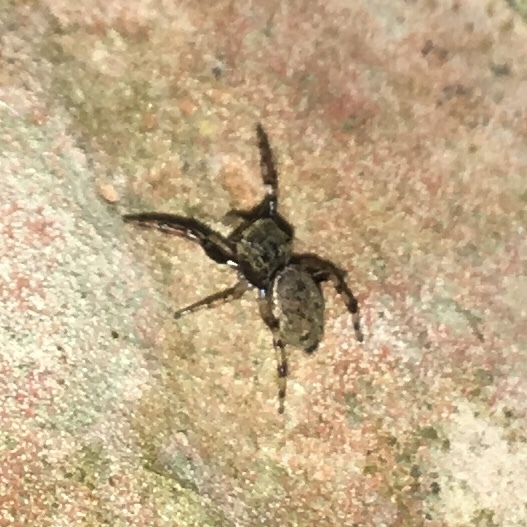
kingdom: Animalia
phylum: Arthropoda
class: Arachnida
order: Araneae
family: Salticidae
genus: Zygoballus
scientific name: Zygoballus nervosus
